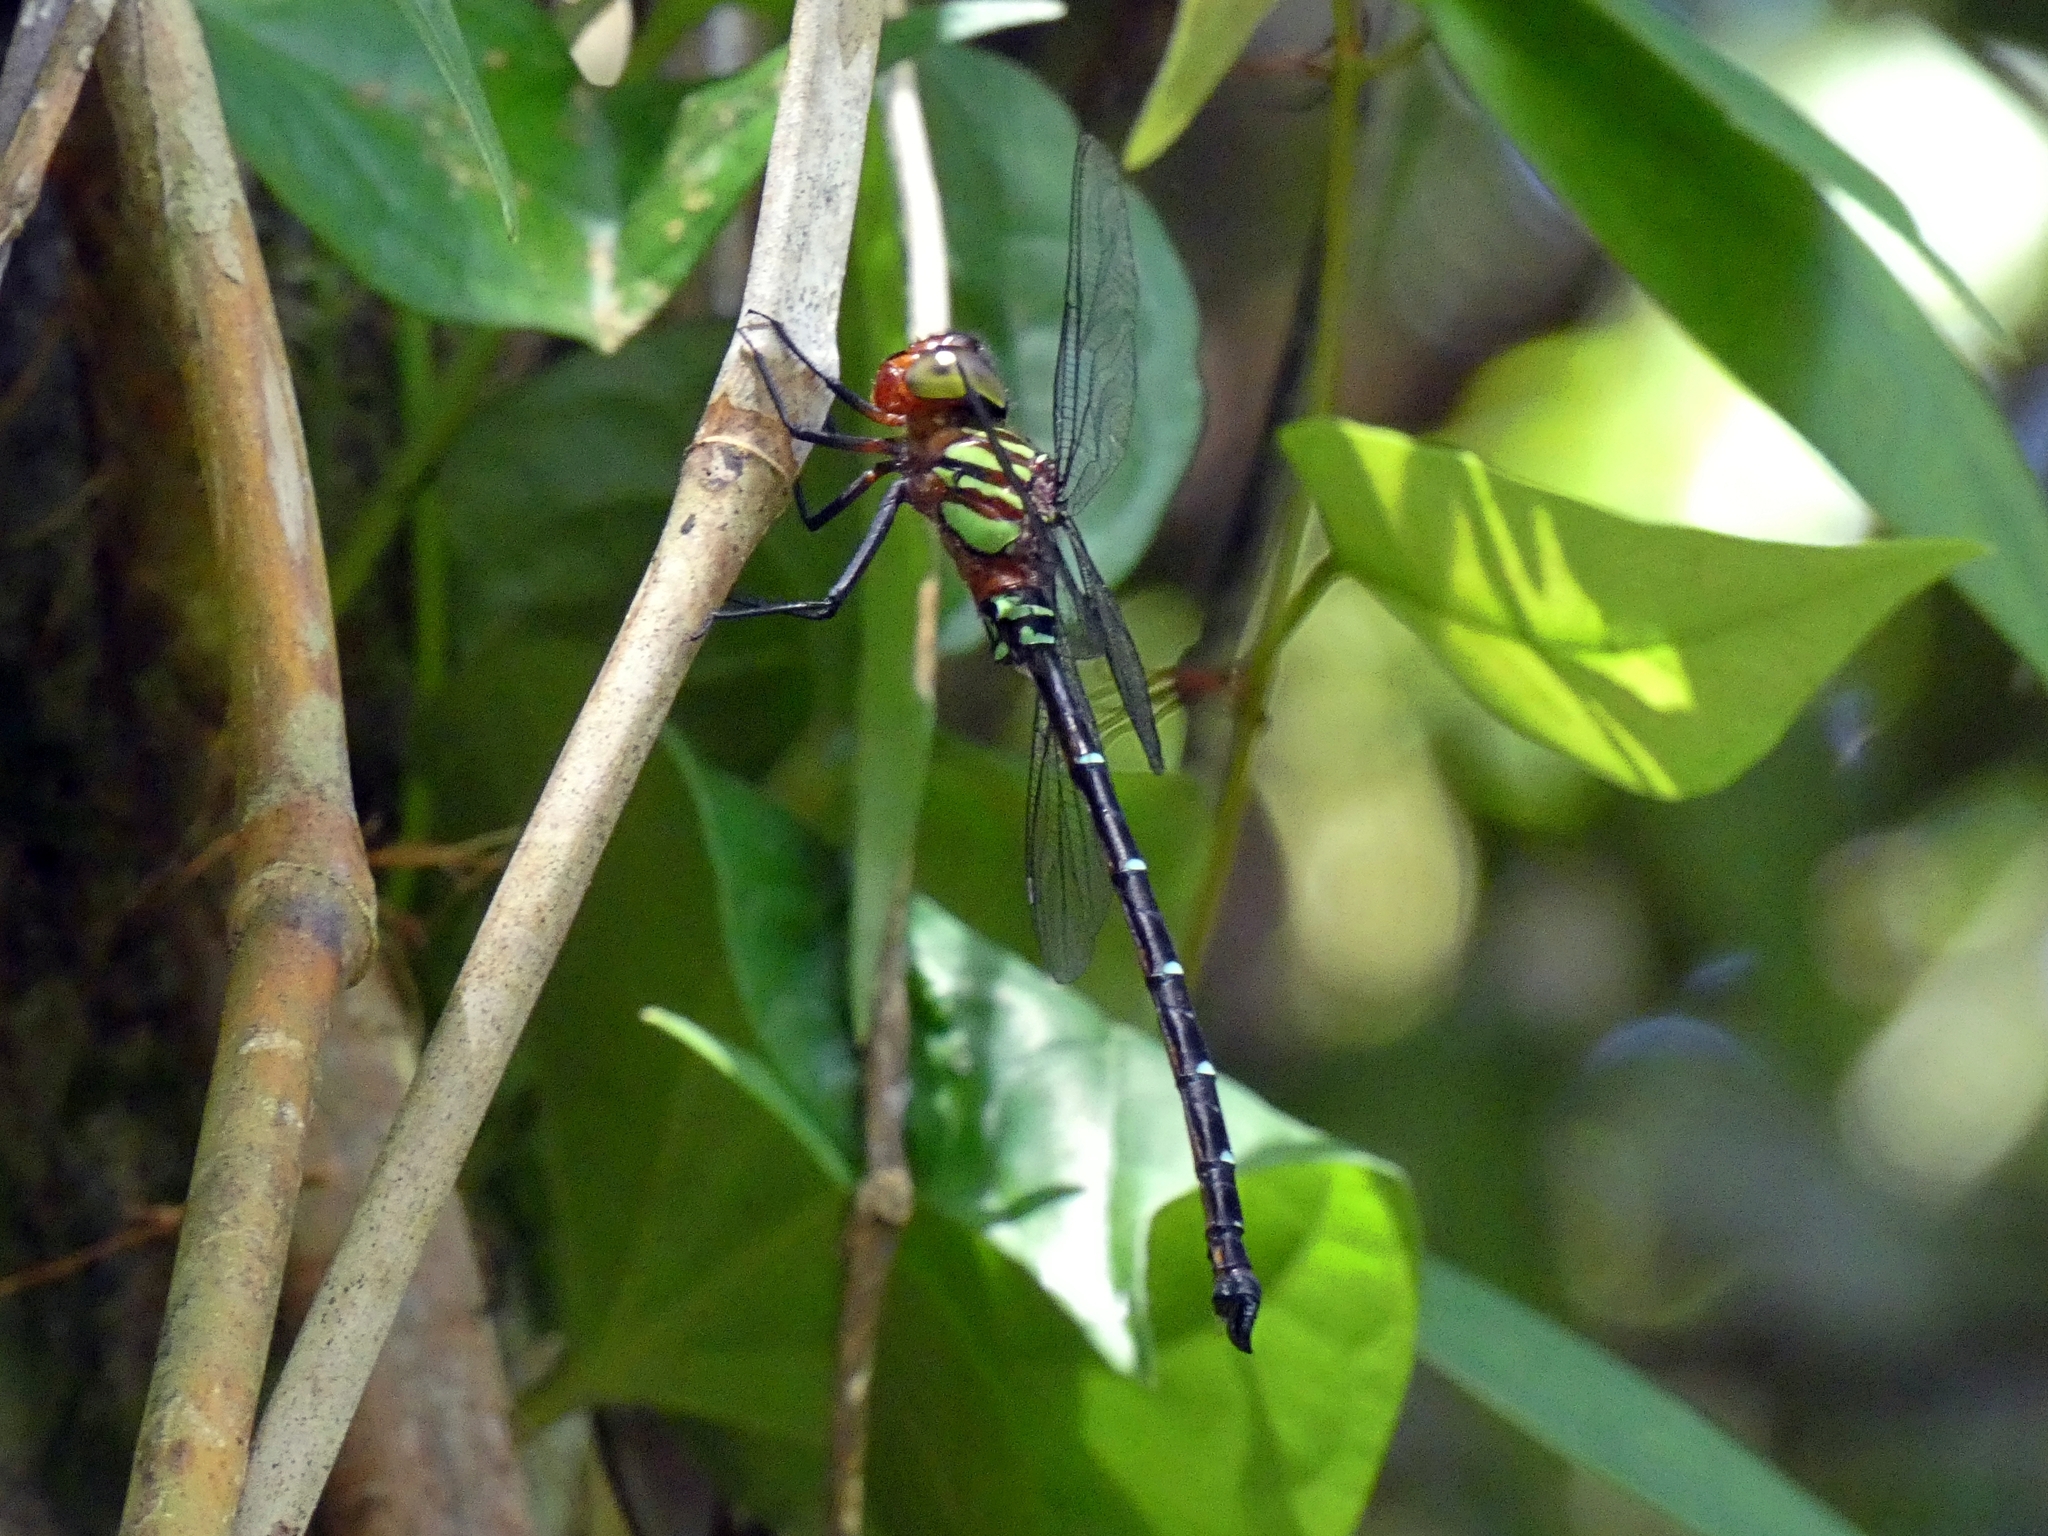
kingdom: Animalia
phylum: Arthropoda
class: Insecta
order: Odonata
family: Aeshnidae
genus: Dromaeschna
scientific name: Dromaeschna forcipata
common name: Green-striped darner
